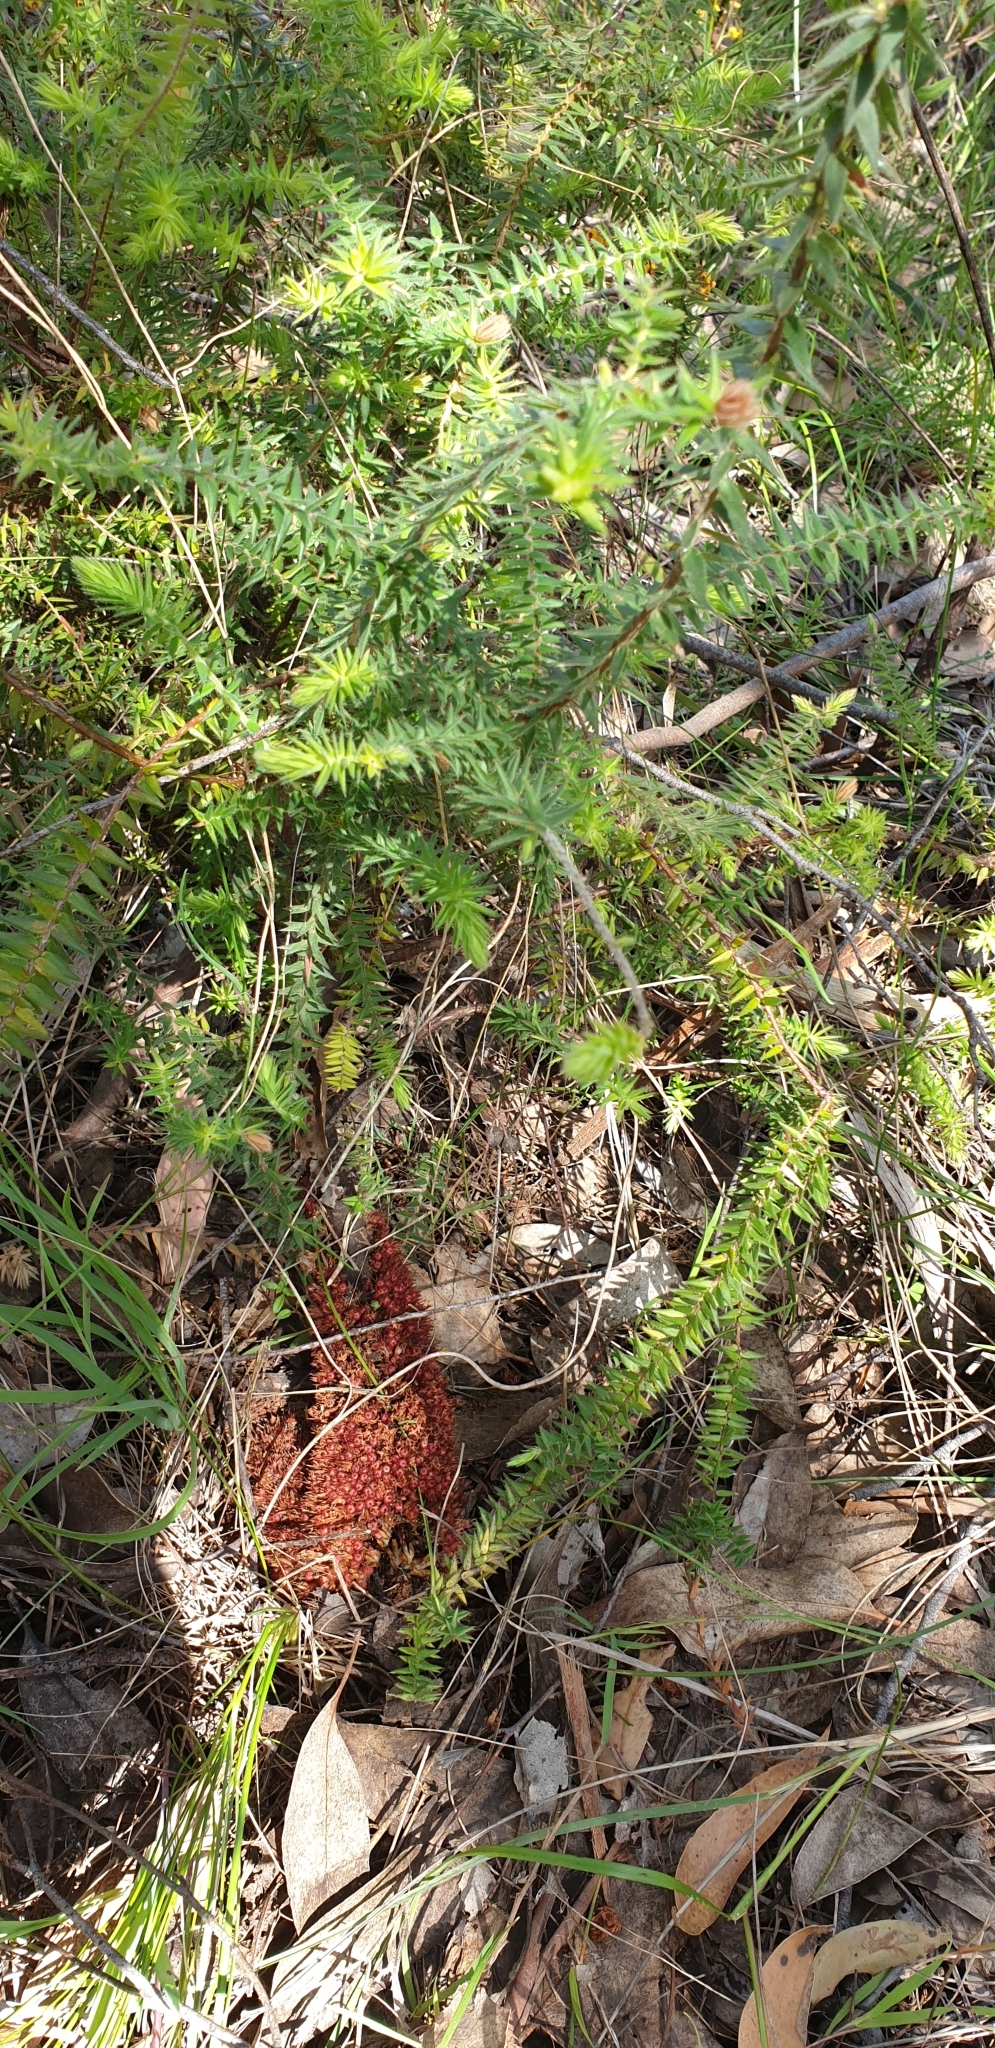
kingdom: Plantae
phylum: Tracheophyta
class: Magnoliopsida
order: Ericales
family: Ericaceae
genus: Acrotriche
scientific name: Acrotriche fasciculiflora
